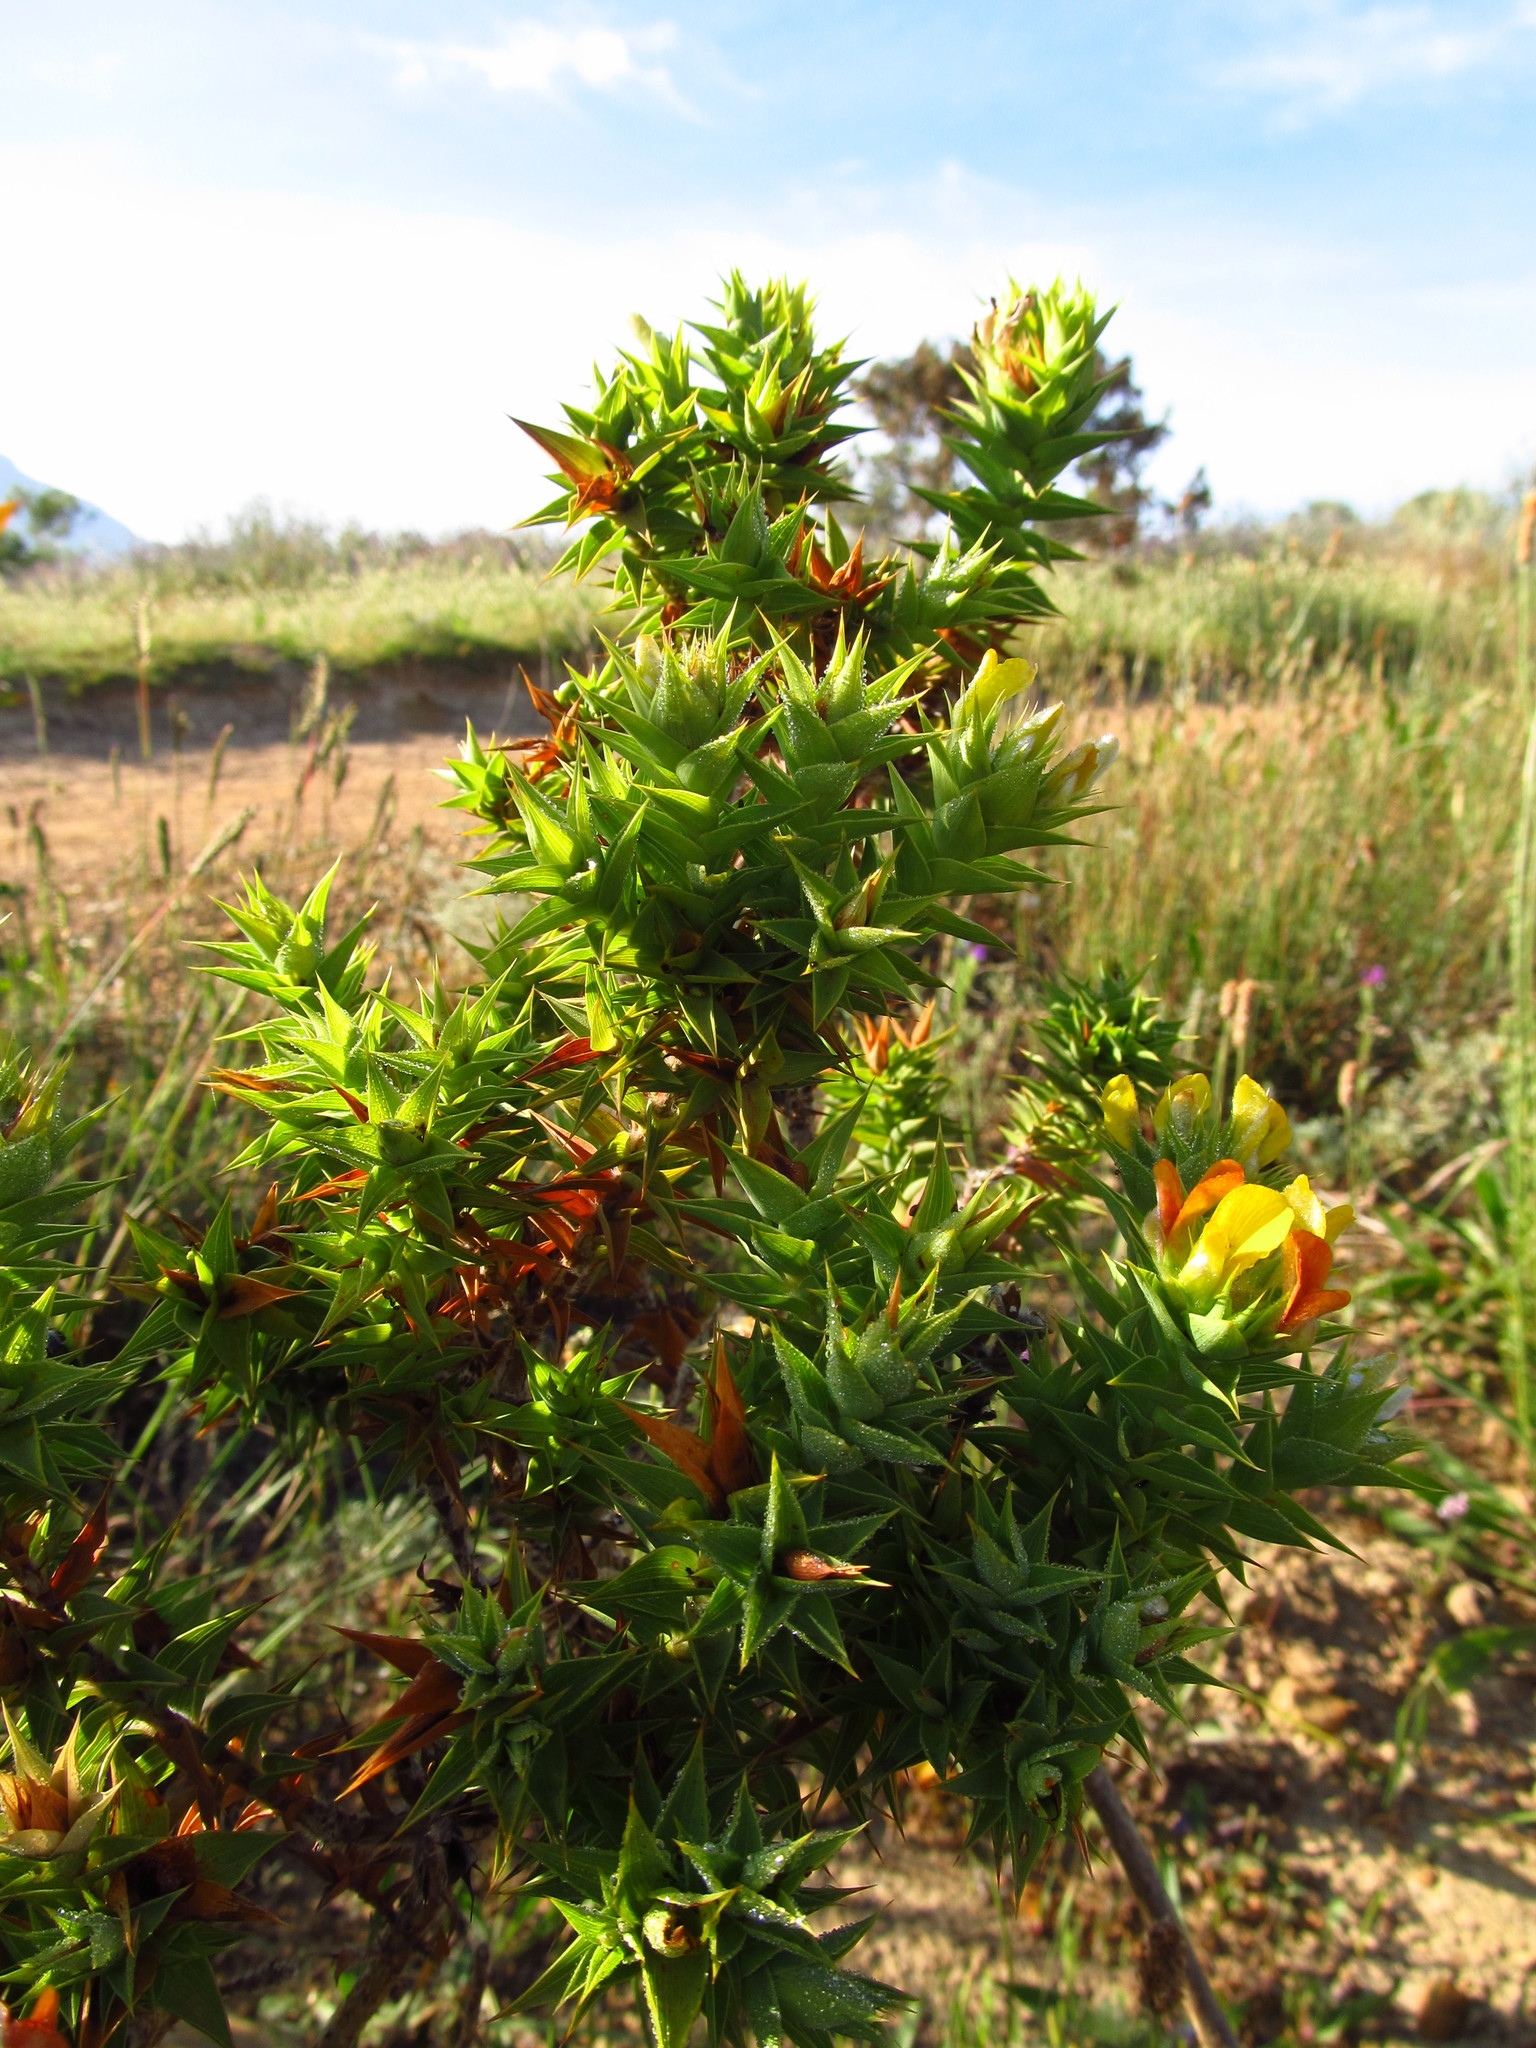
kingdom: Plantae
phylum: Tracheophyta
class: Magnoliopsida
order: Fabales
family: Fabaceae
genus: Aspalathus
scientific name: Aspalathus cordata
